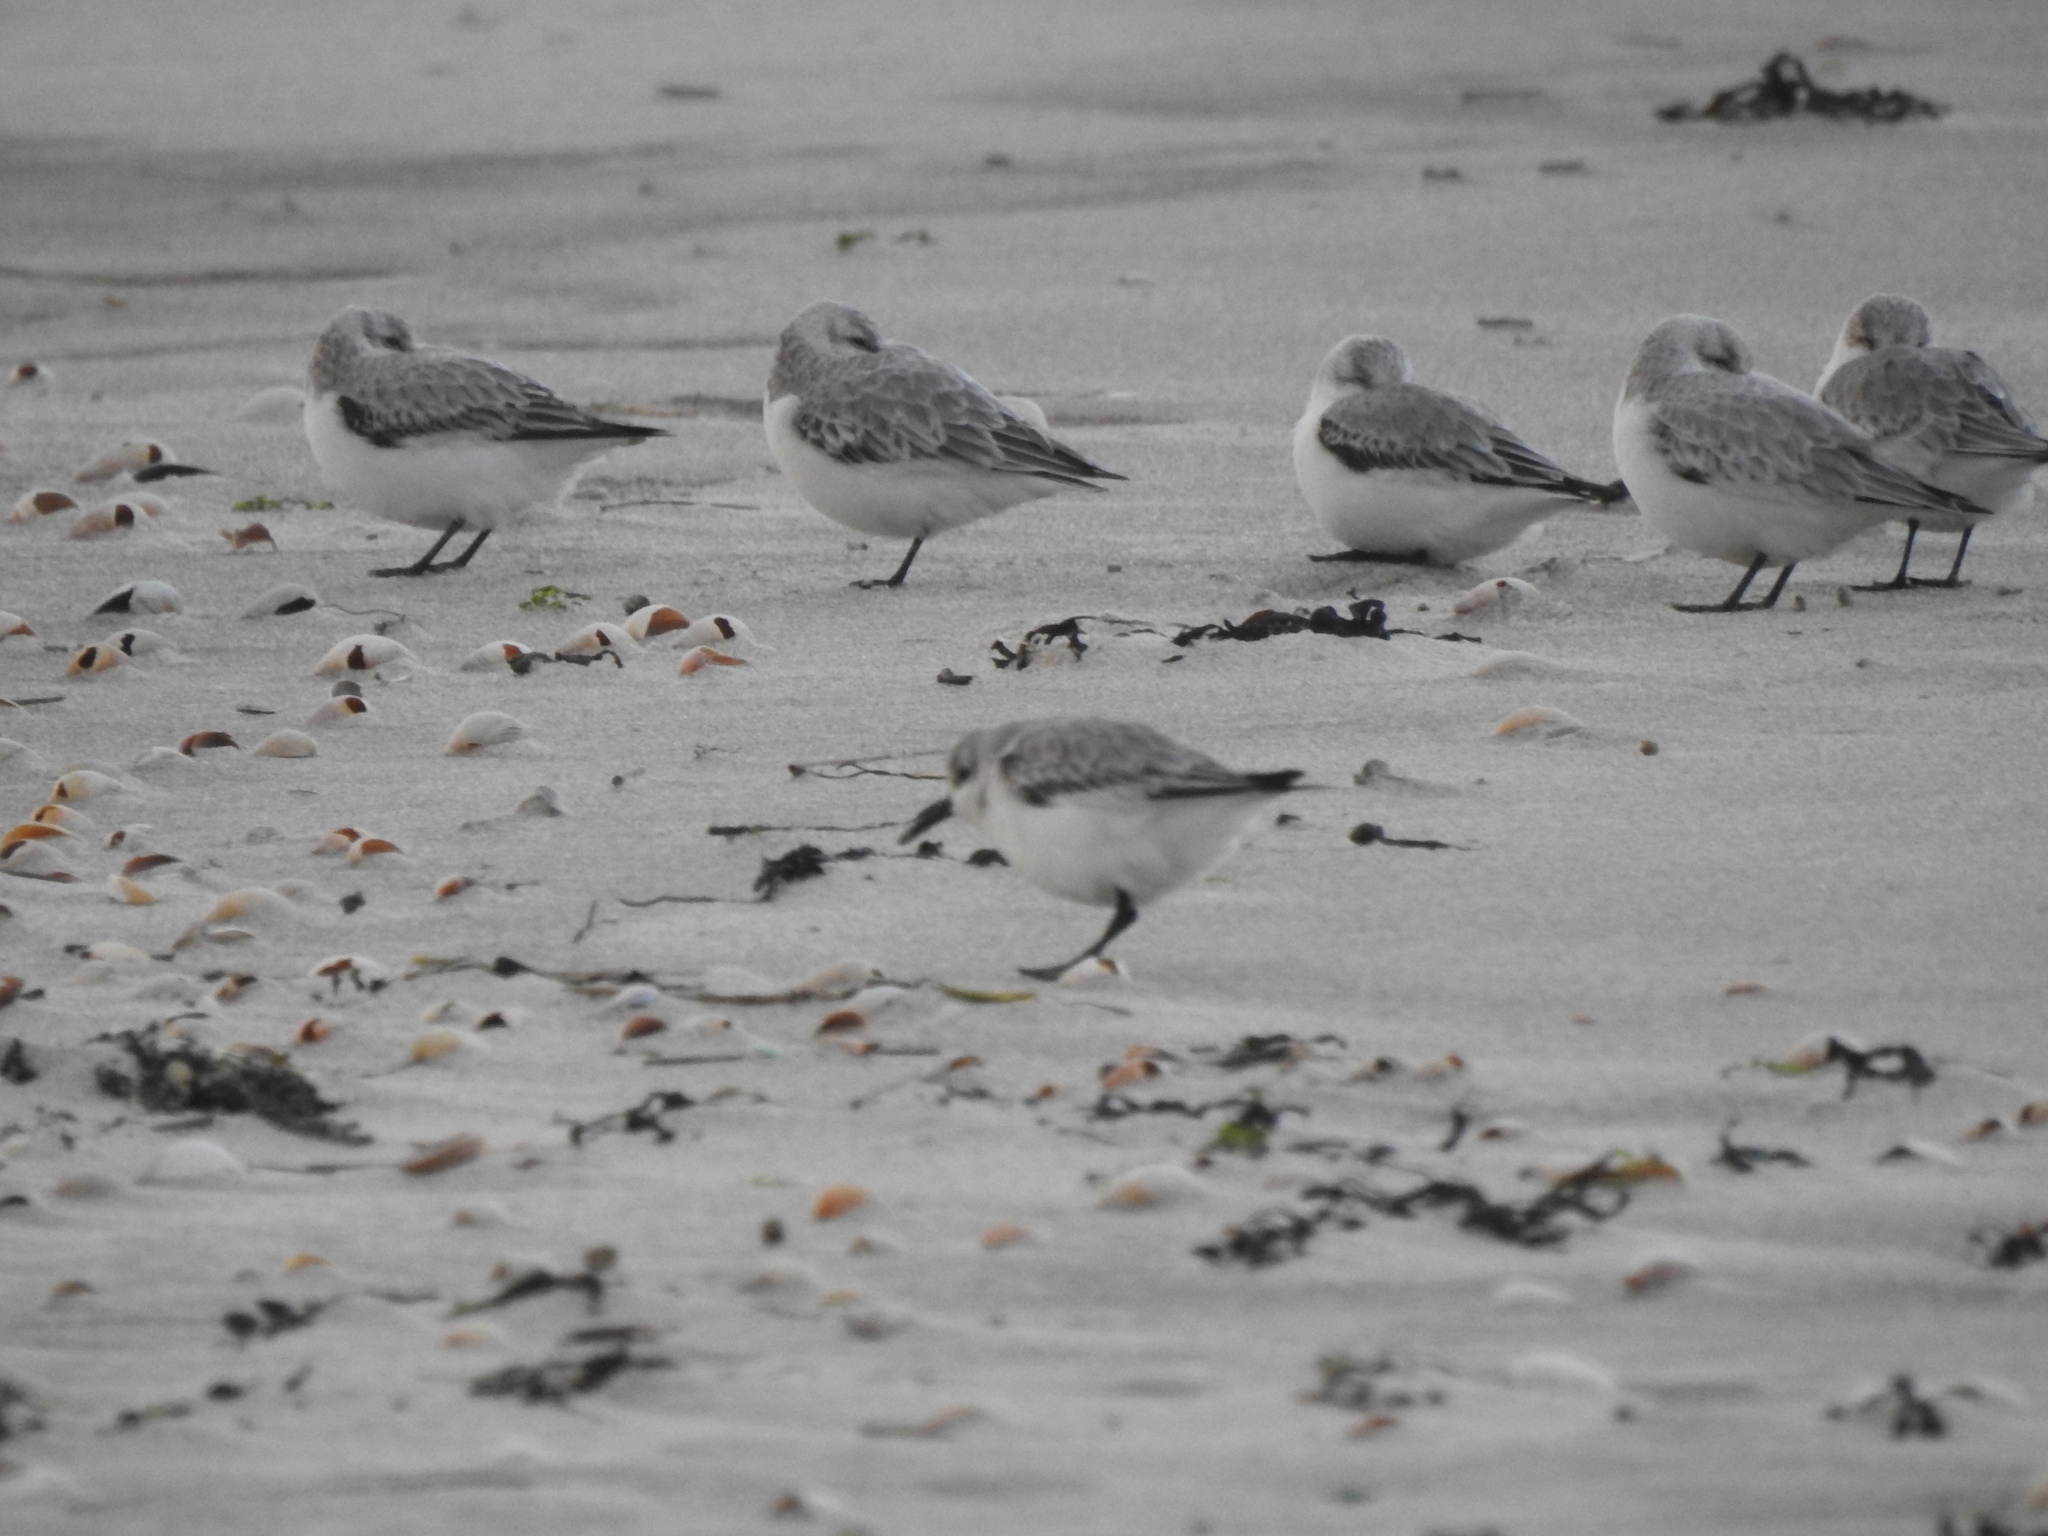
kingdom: Animalia
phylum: Chordata
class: Aves
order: Charadriiformes
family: Scolopacidae
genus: Calidris
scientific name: Calidris alba
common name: Sanderling
